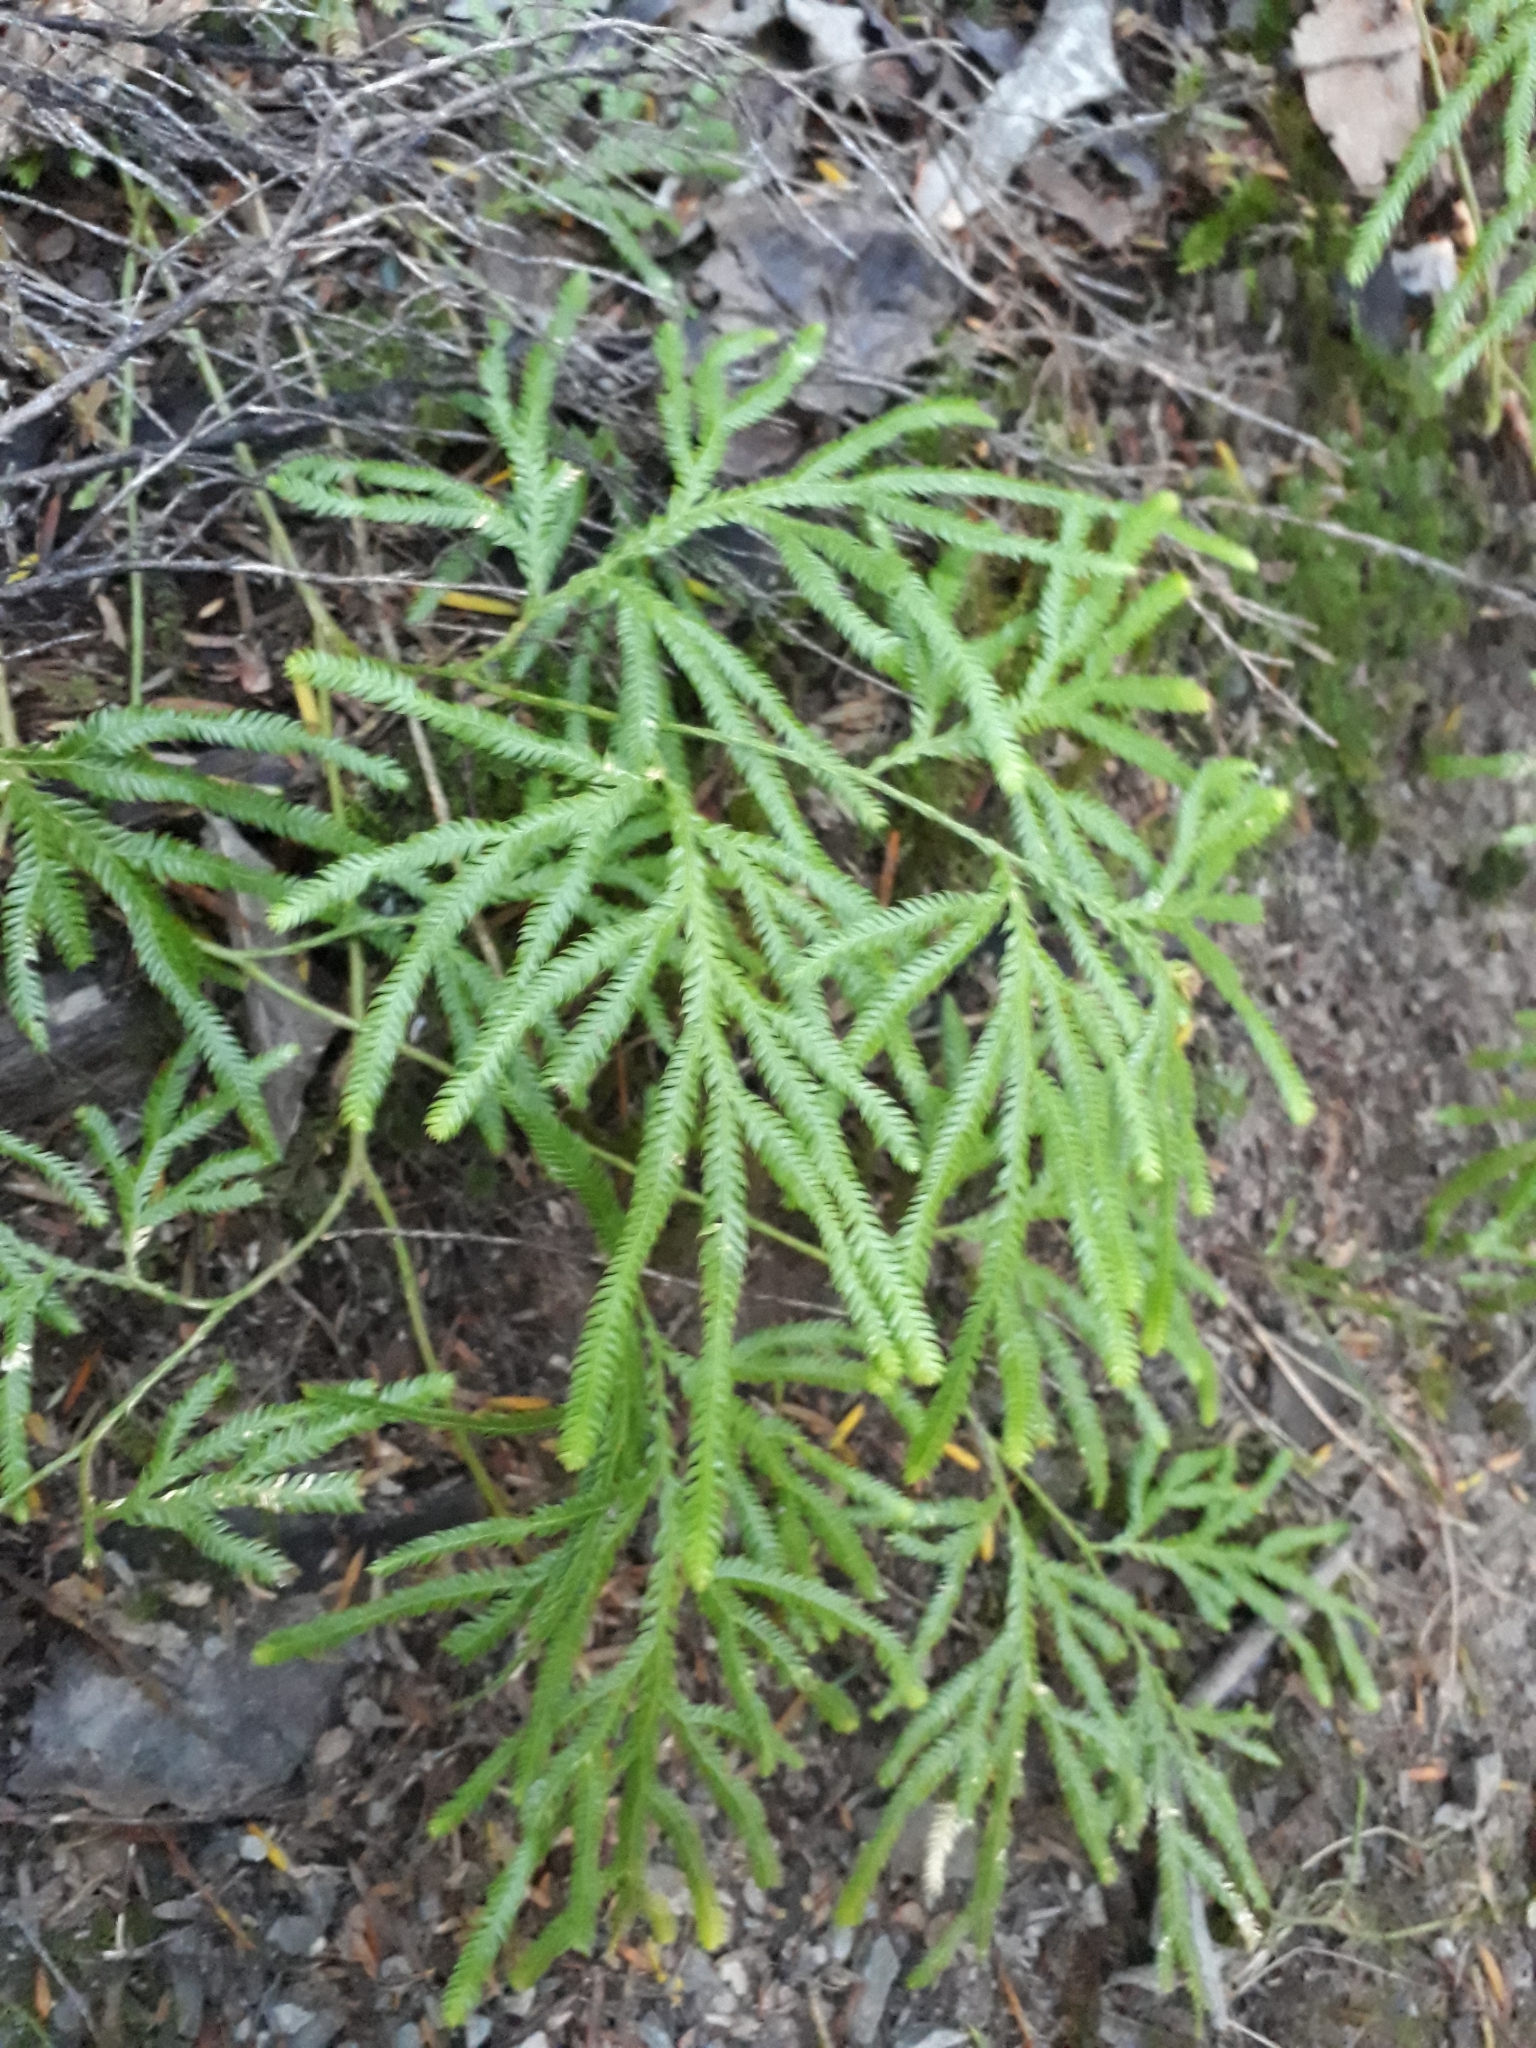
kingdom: Plantae
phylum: Tracheophyta
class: Lycopodiopsida
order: Lycopodiales
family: Lycopodiaceae
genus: Lycopodium
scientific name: Lycopodium volubile
